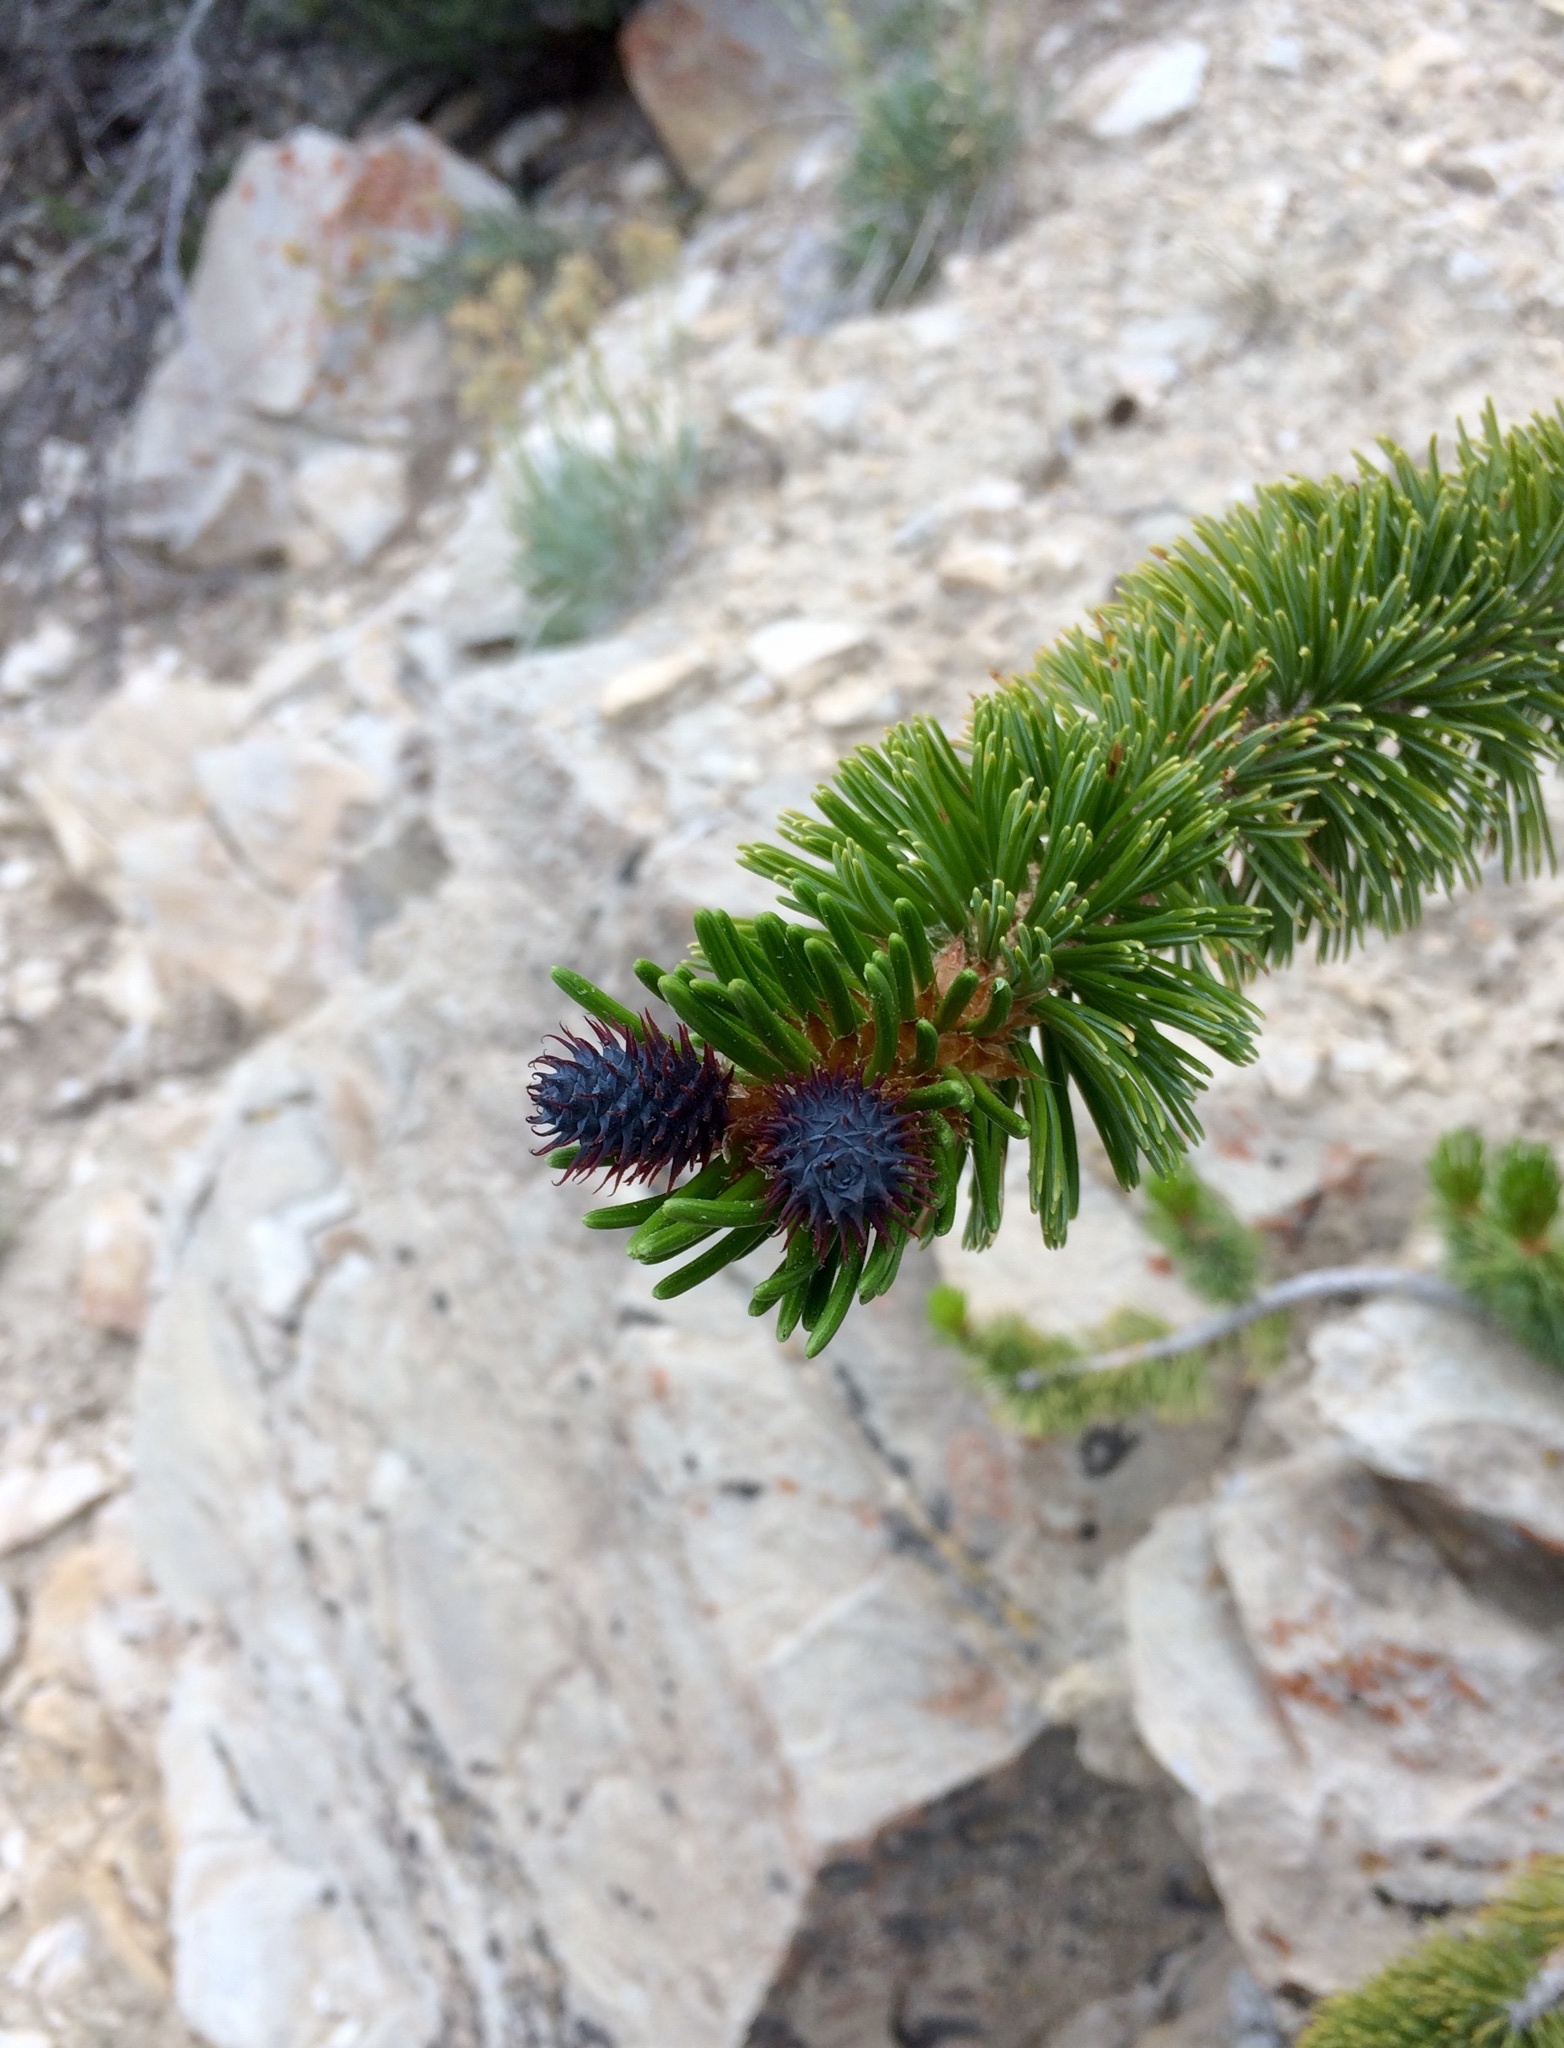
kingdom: Plantae
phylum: Tracheophyta
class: Pinopsida
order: Pinales
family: Pinaceae
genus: Pinus
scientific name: Pinus longaeva
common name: Intermountain bristlecone pine
